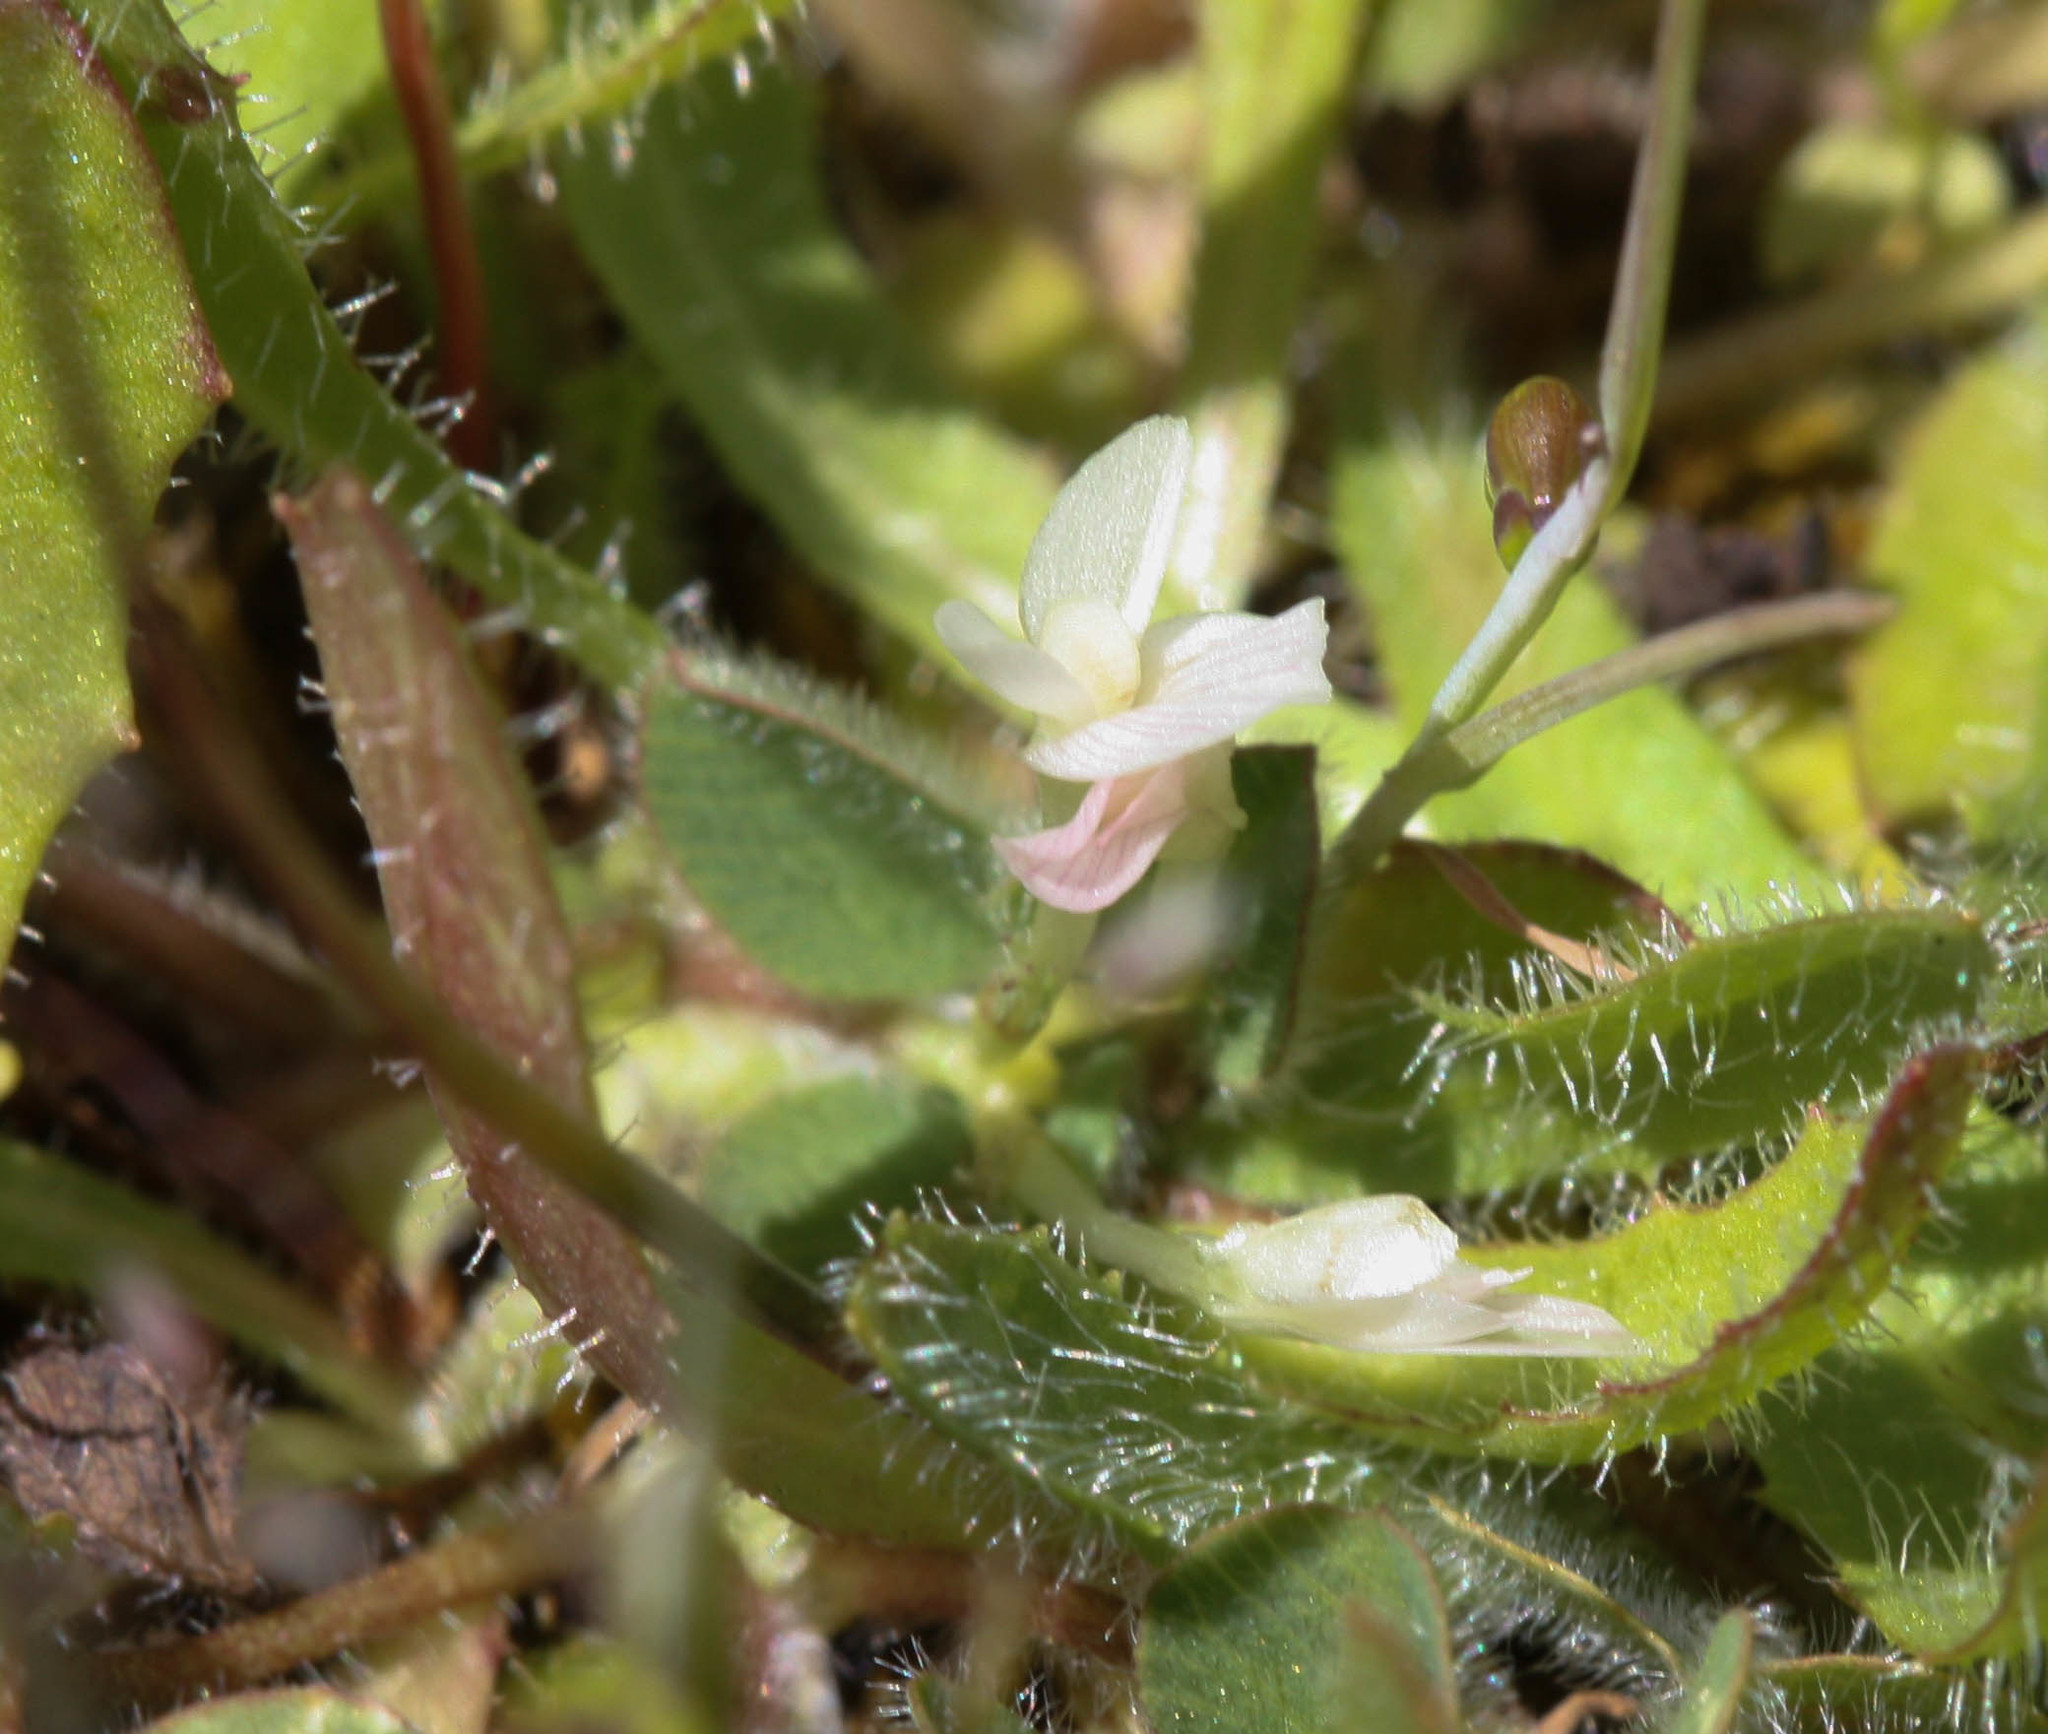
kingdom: Plantae
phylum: Tracheophyta
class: Magnoliopsida
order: Fabales
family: Fabaceae
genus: Trifolium
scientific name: Trifolium subterraneum
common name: Subterranean clover
